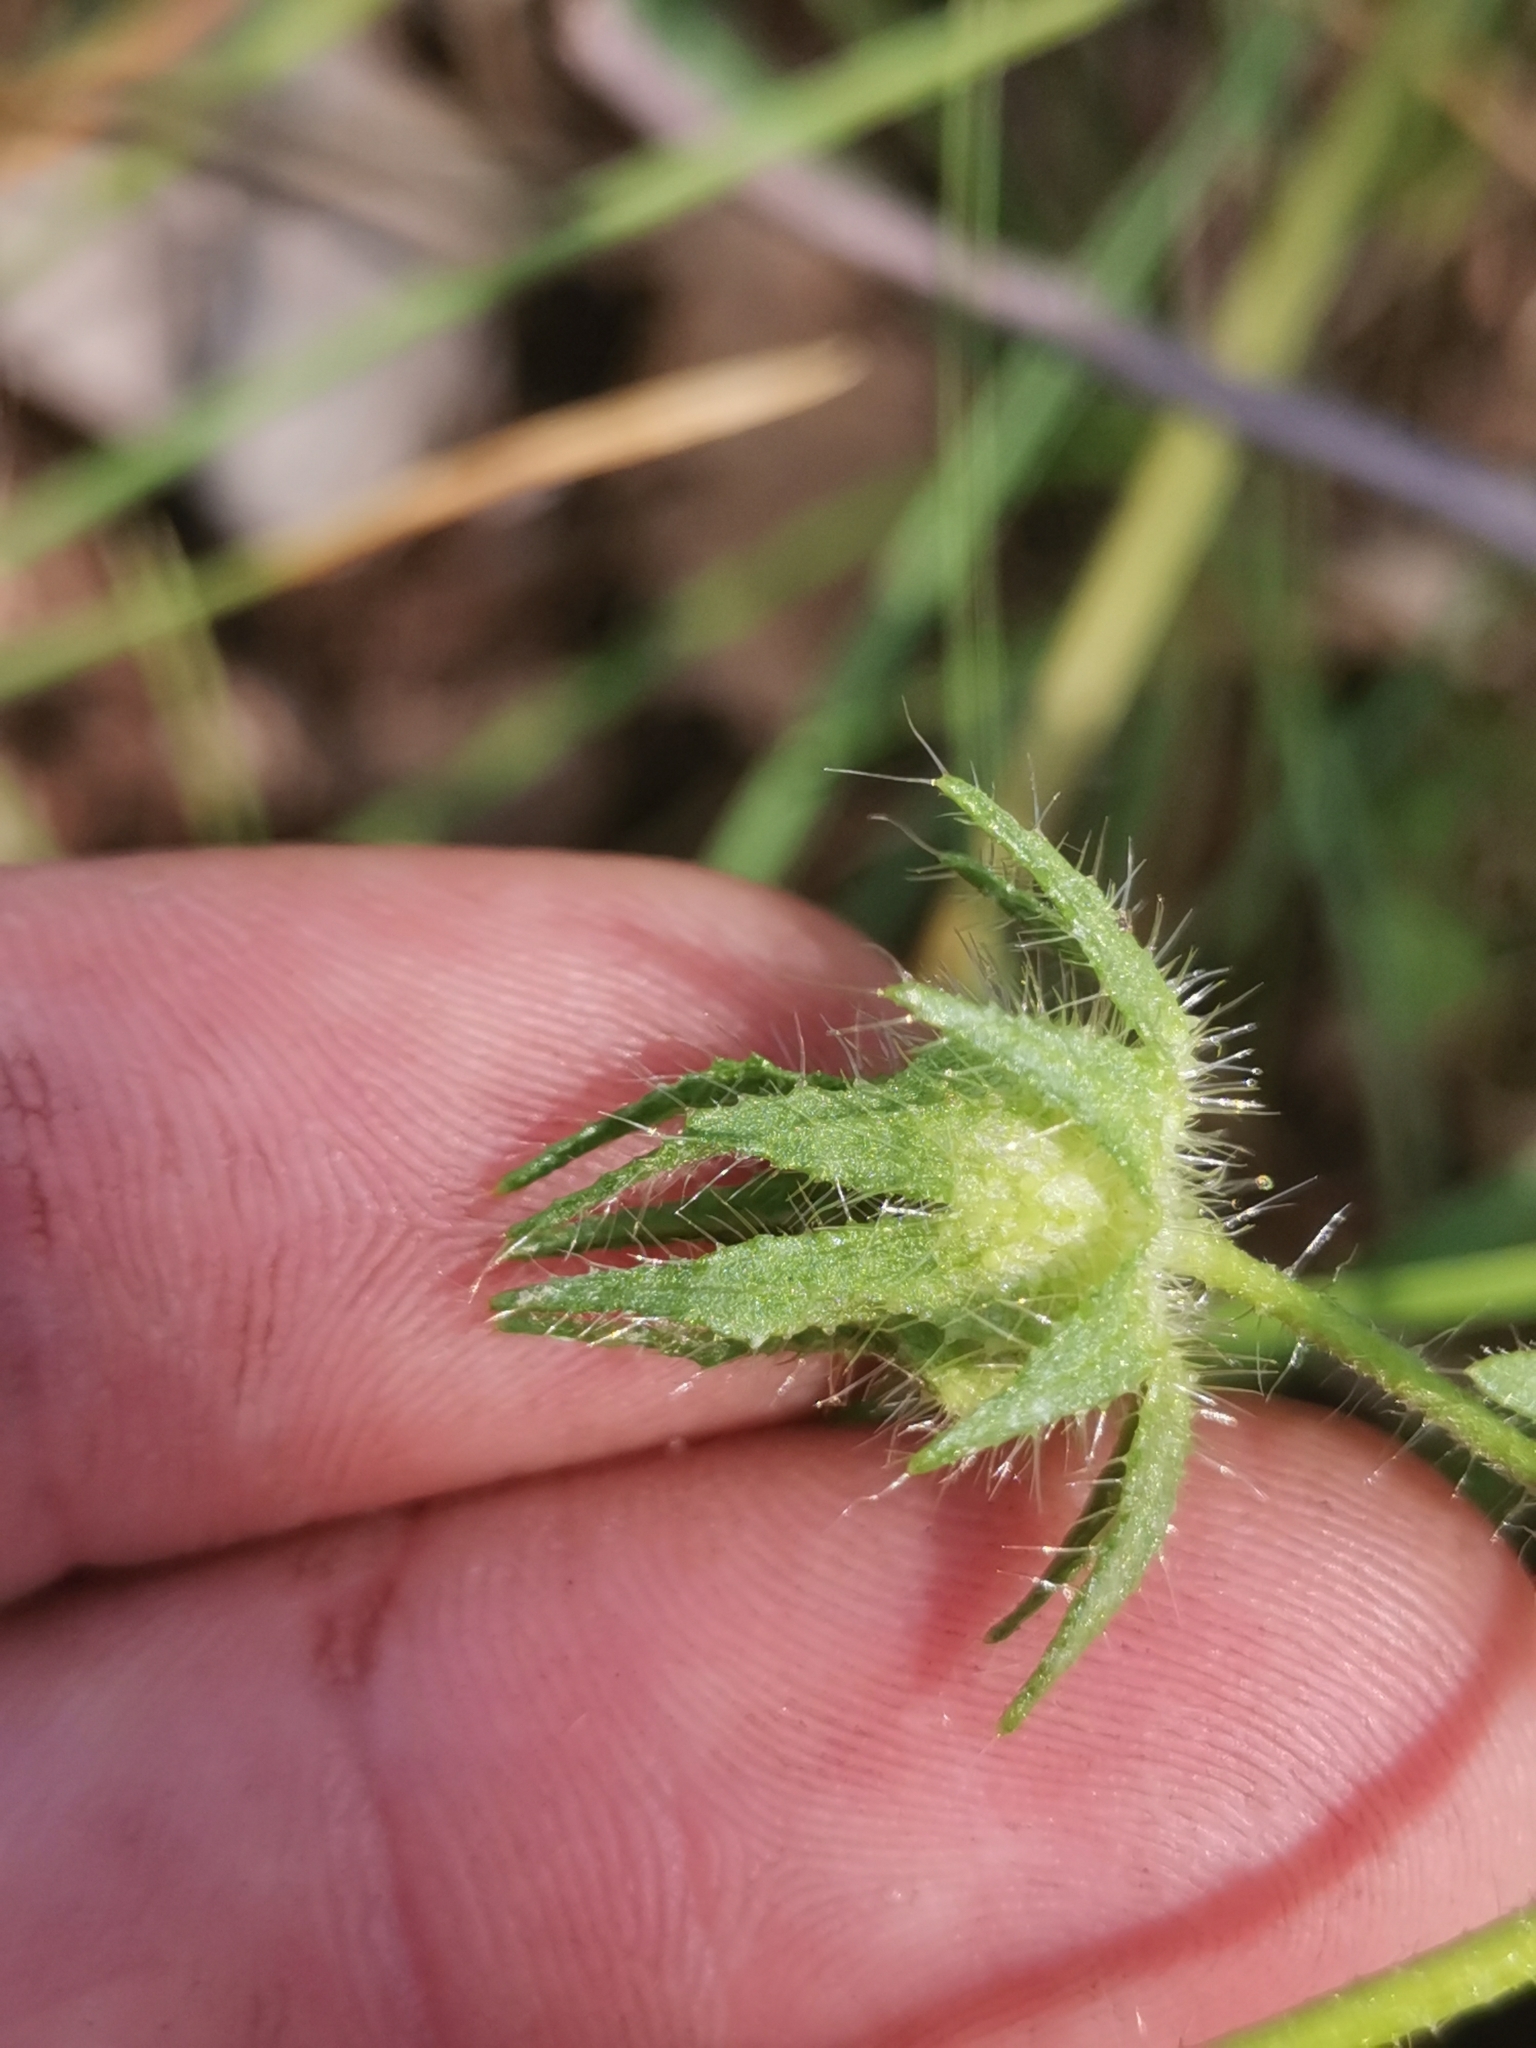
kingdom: Plantae
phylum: Tracheophyta
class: Magnoliopsida
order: Malvales
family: Malvaceae
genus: Althaea
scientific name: Althaea hirsuta
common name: Rough marsh-mallow
